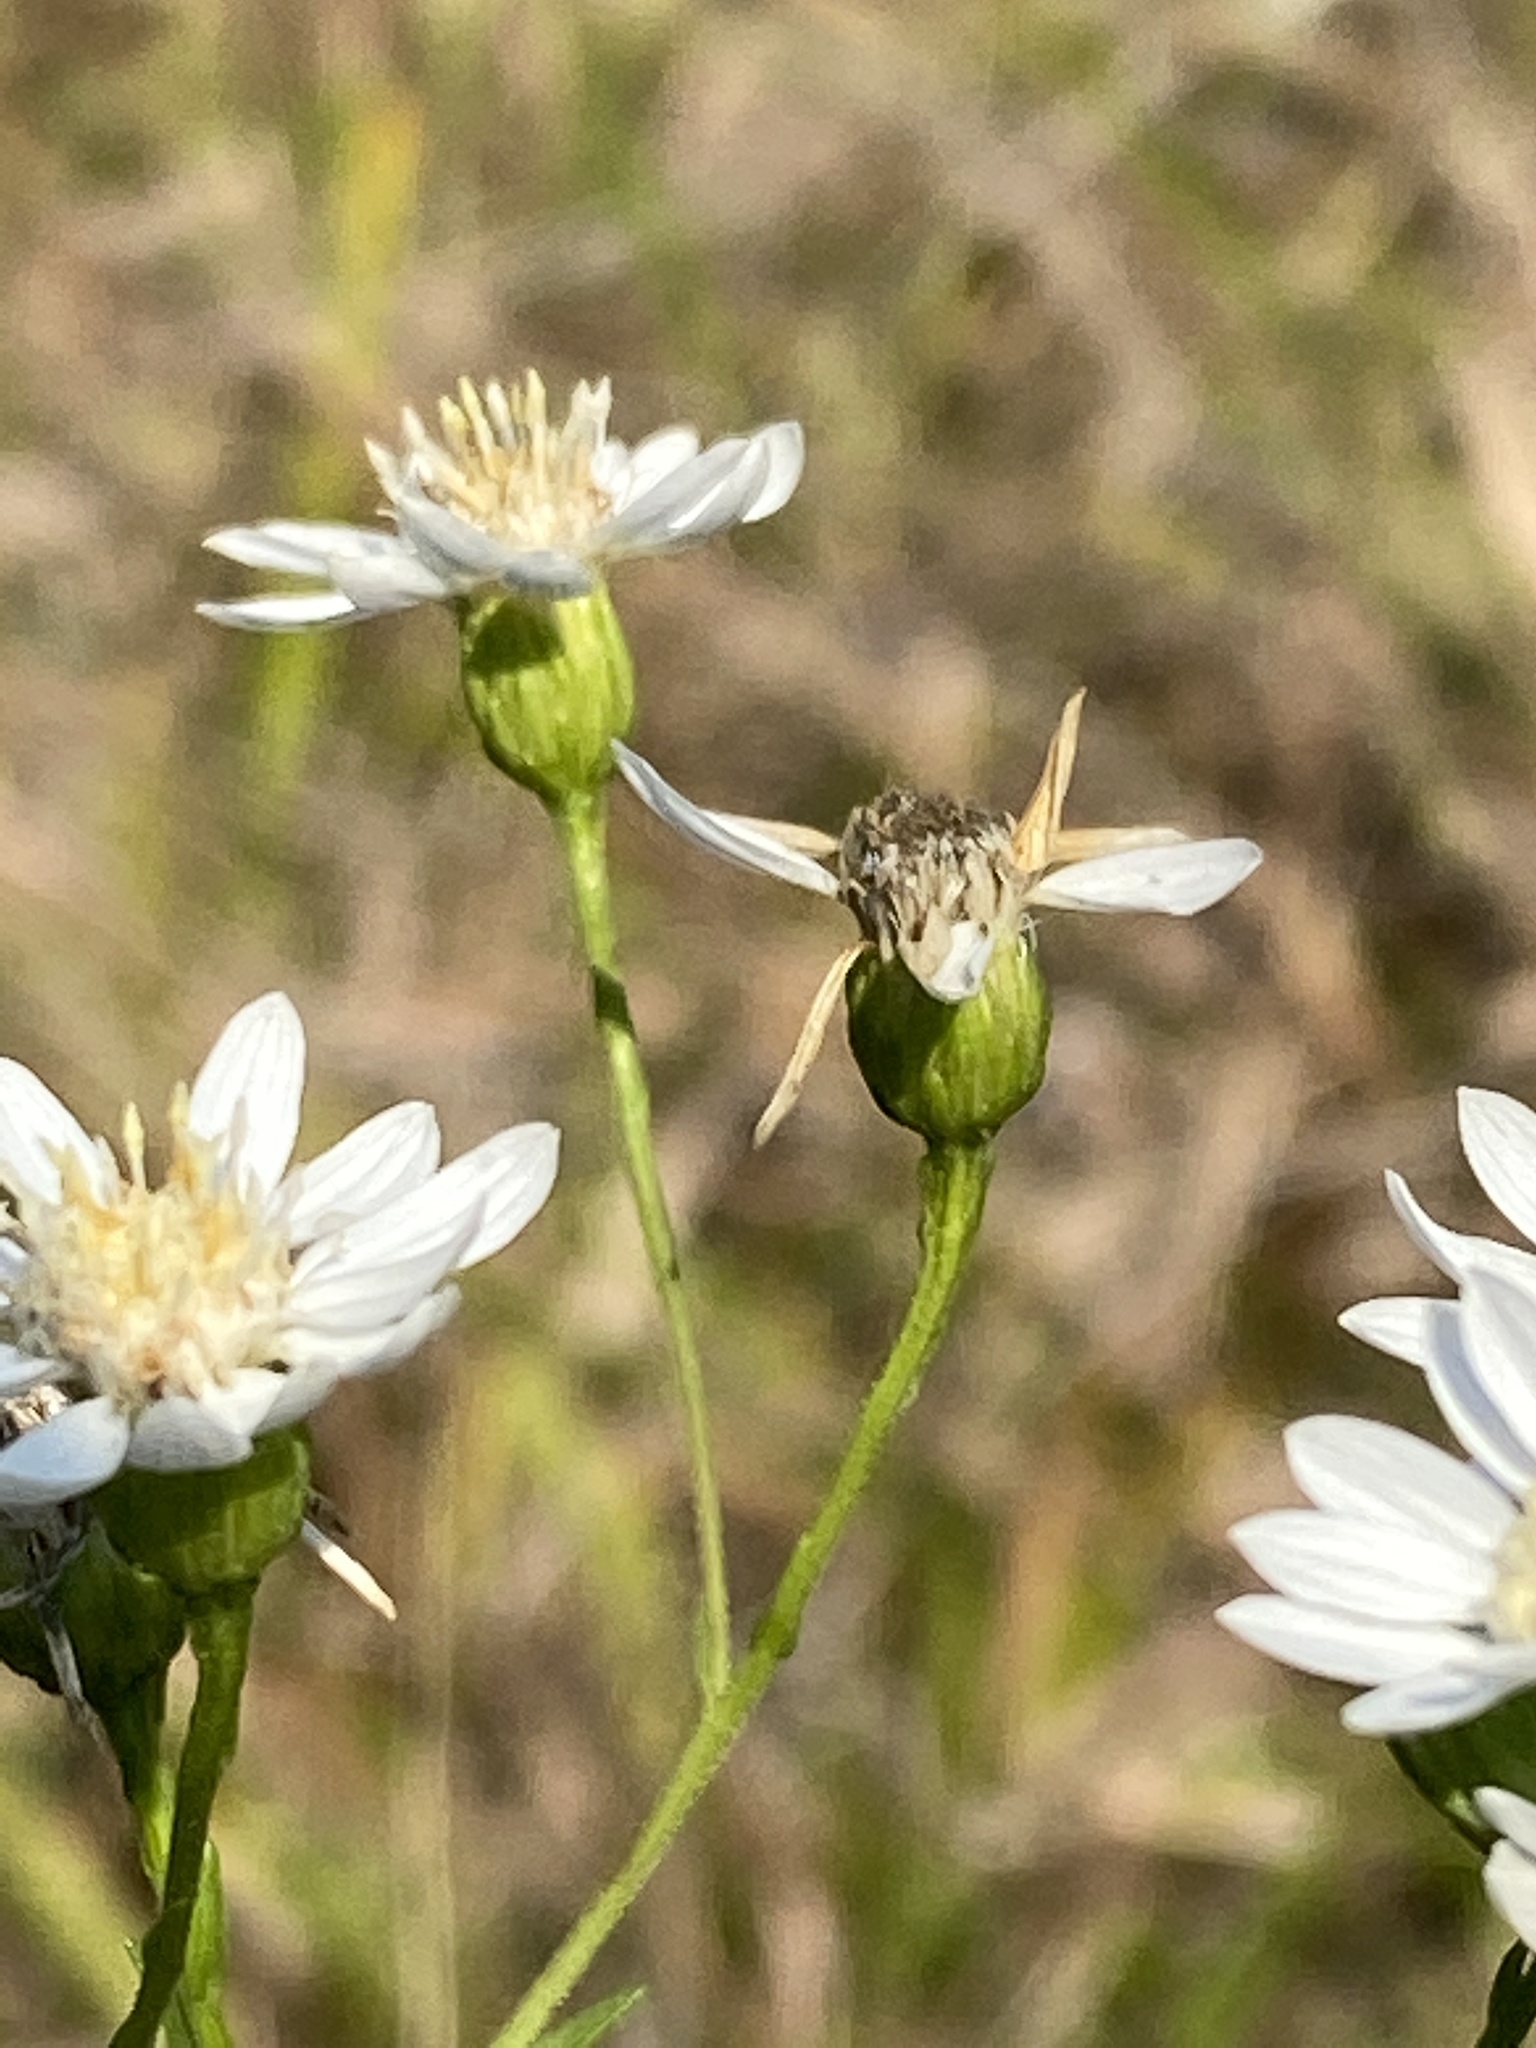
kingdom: Plantae
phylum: Tracheophyta
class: Magnoliopsida
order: Asterales
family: Asteraceae
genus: Solidago
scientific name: Solidago ptarmicoides
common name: White flat-top goldenrod
